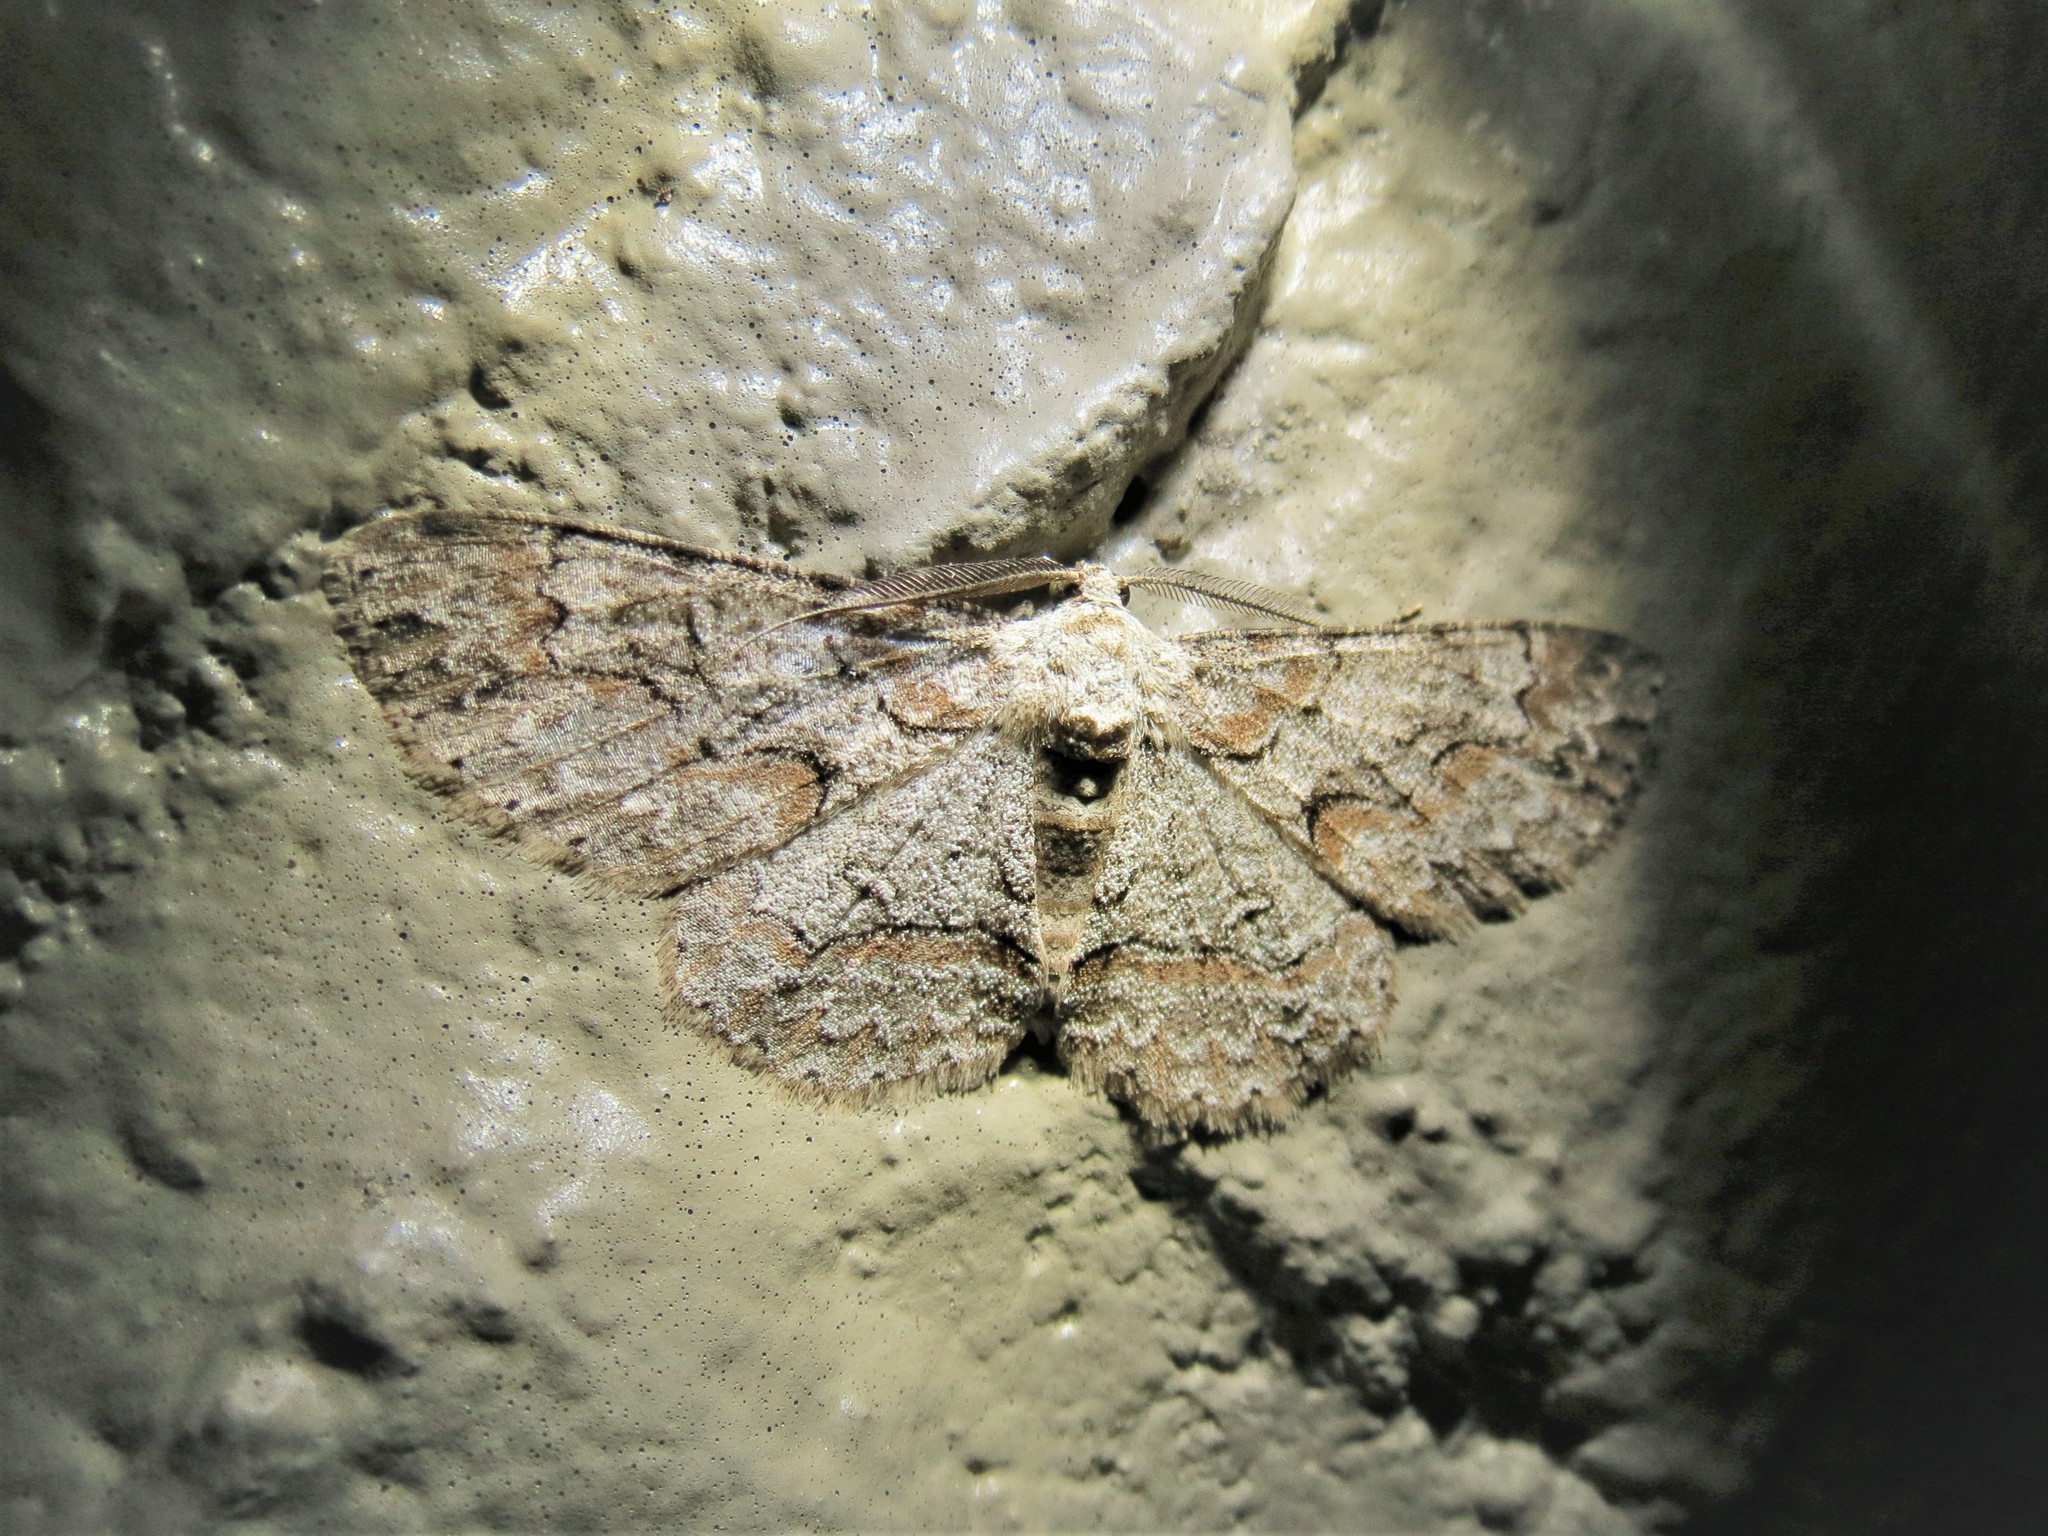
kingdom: Animalia
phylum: Arthropoda
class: Insecta
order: Lepidoptera
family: Geometridae
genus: Iridopsis
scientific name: Iridopsis defectaria
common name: Brown-shaded gray
